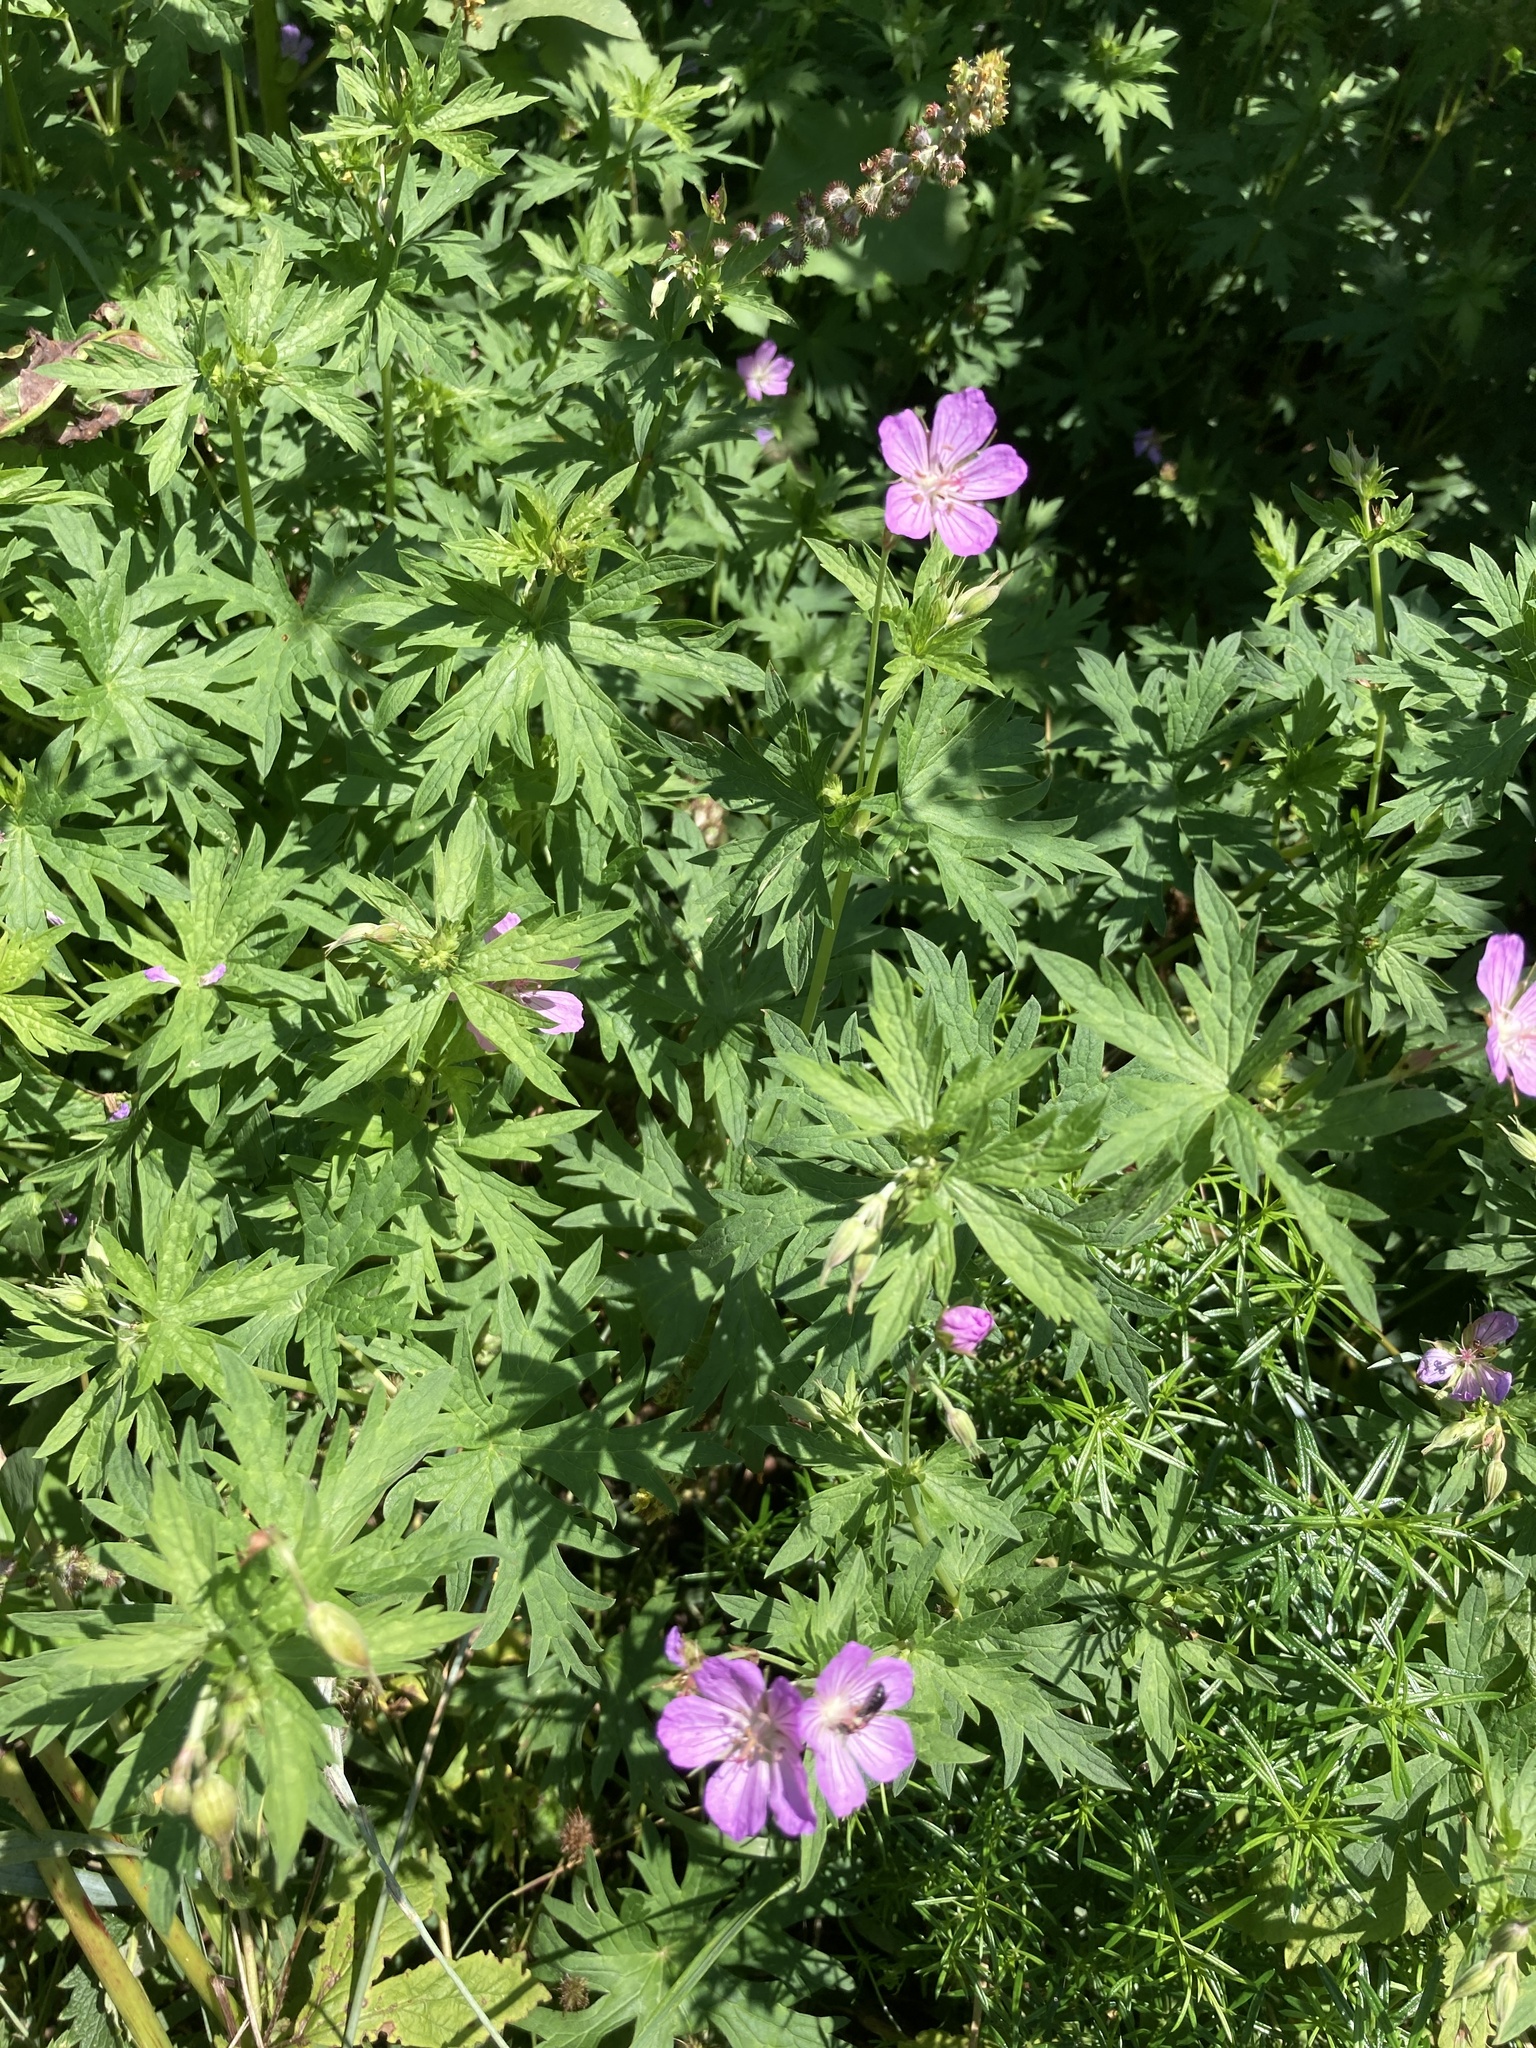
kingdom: Plantae
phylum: Tracheophyta
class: Magnoliopsida
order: Geraniales
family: Geraniaceae
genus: Geranium
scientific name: Geranium collinum
